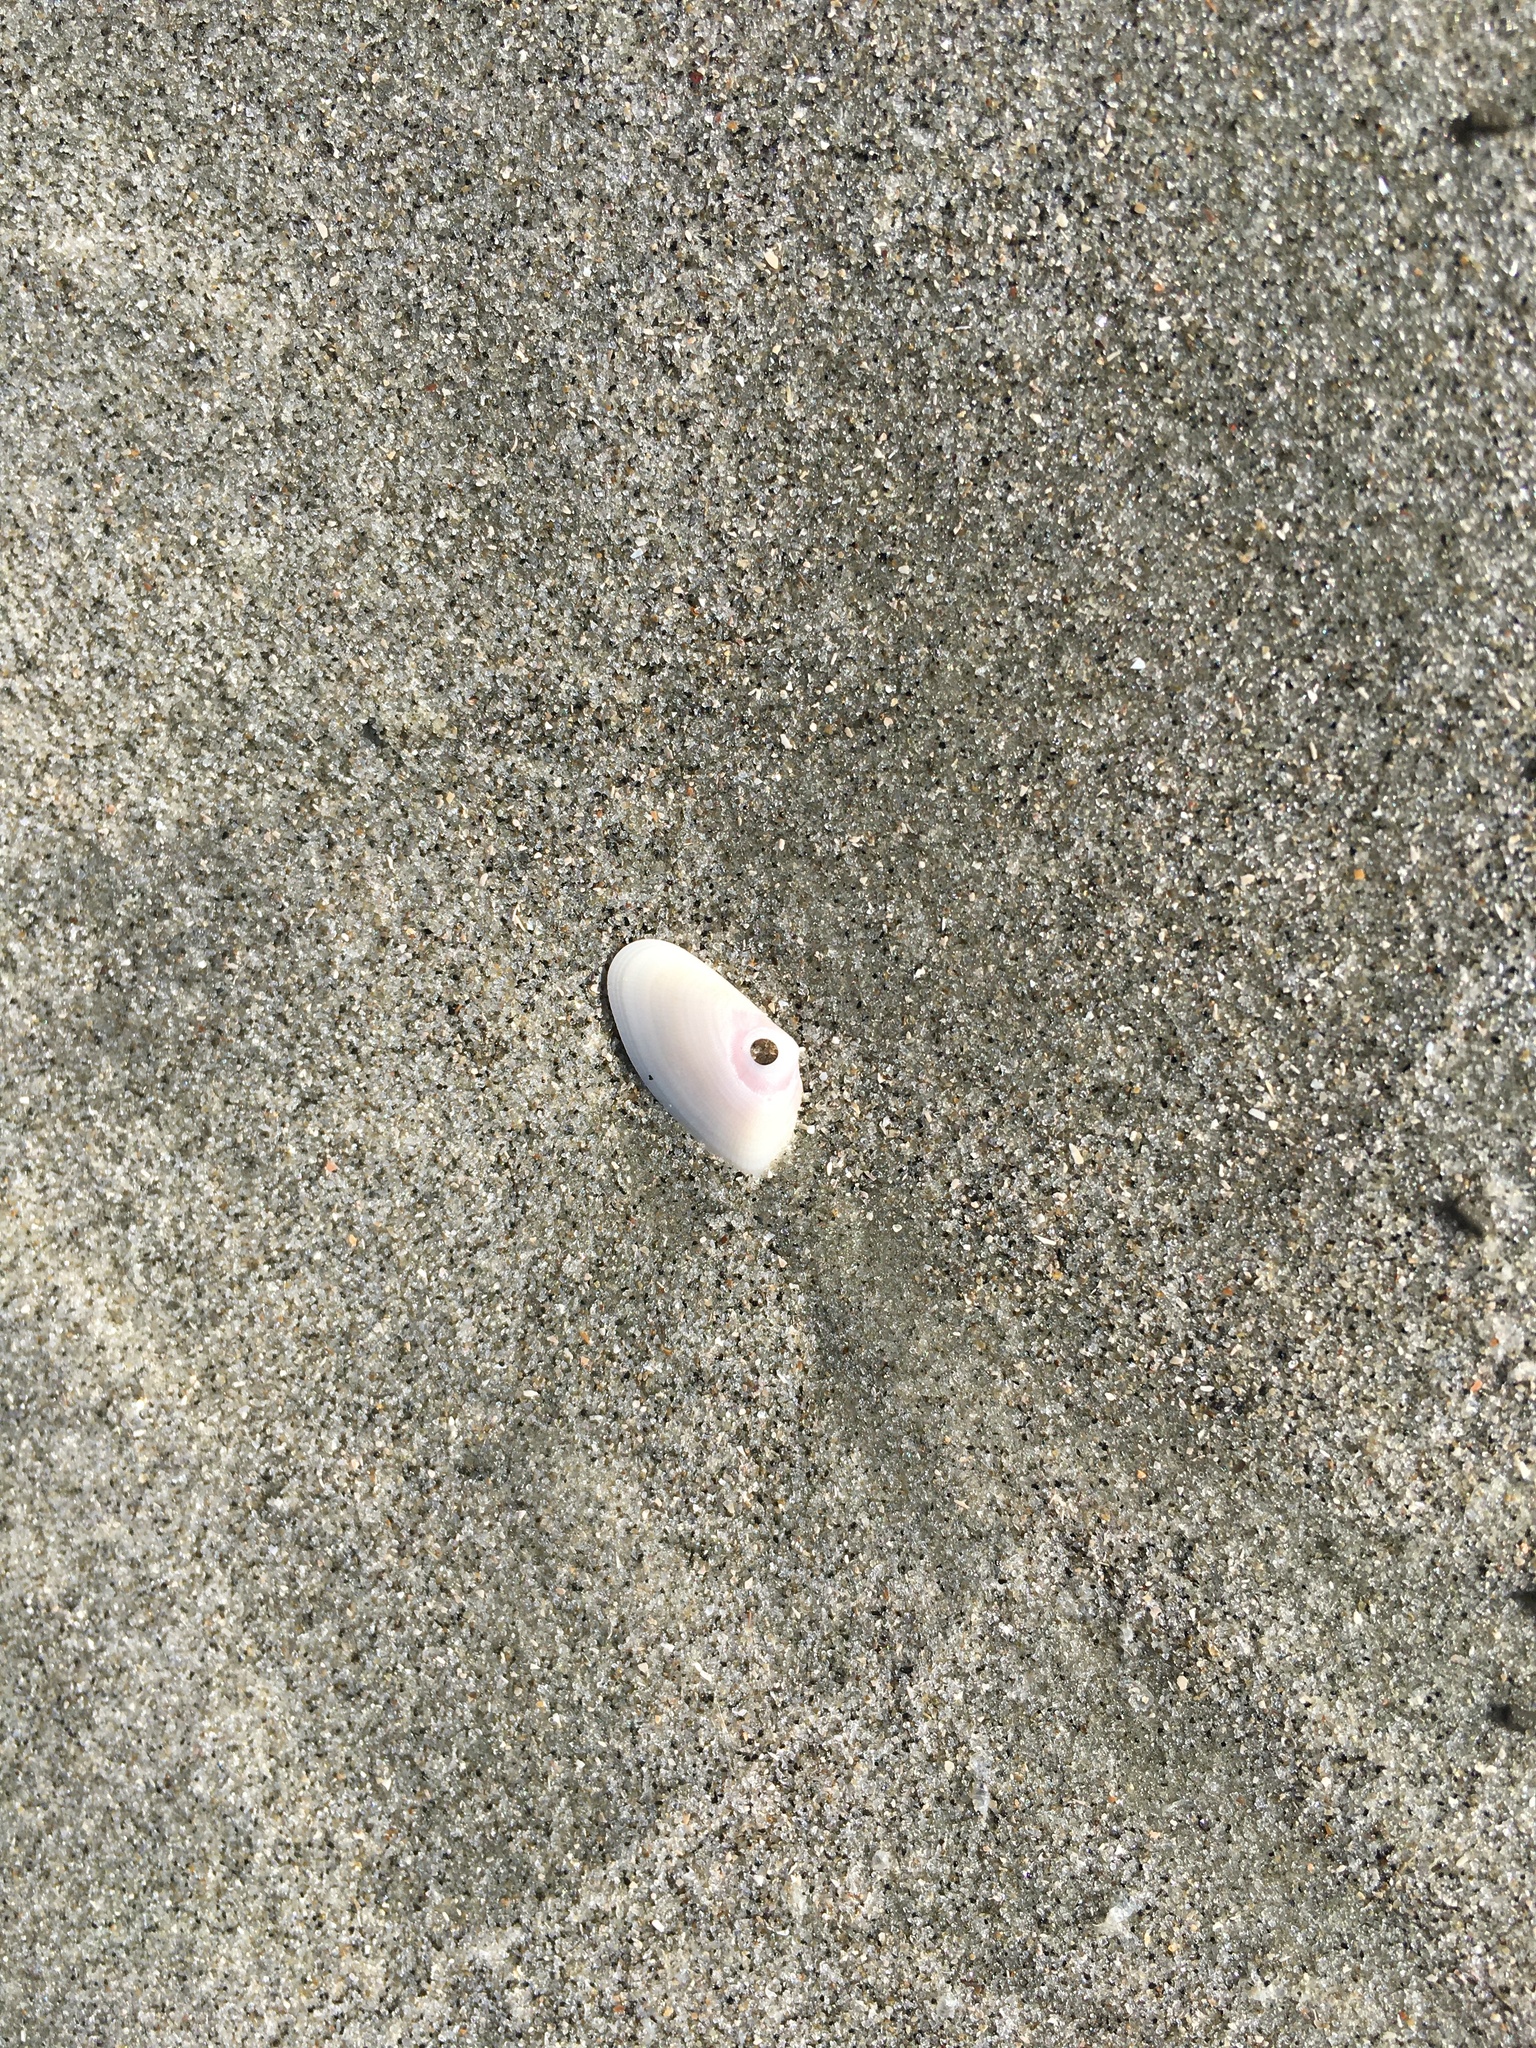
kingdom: Animalia
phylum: Mollusca
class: Bivalvia
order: Cardiida
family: Donacidae
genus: Donax
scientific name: Donax variabilis
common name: Butterfly shell
